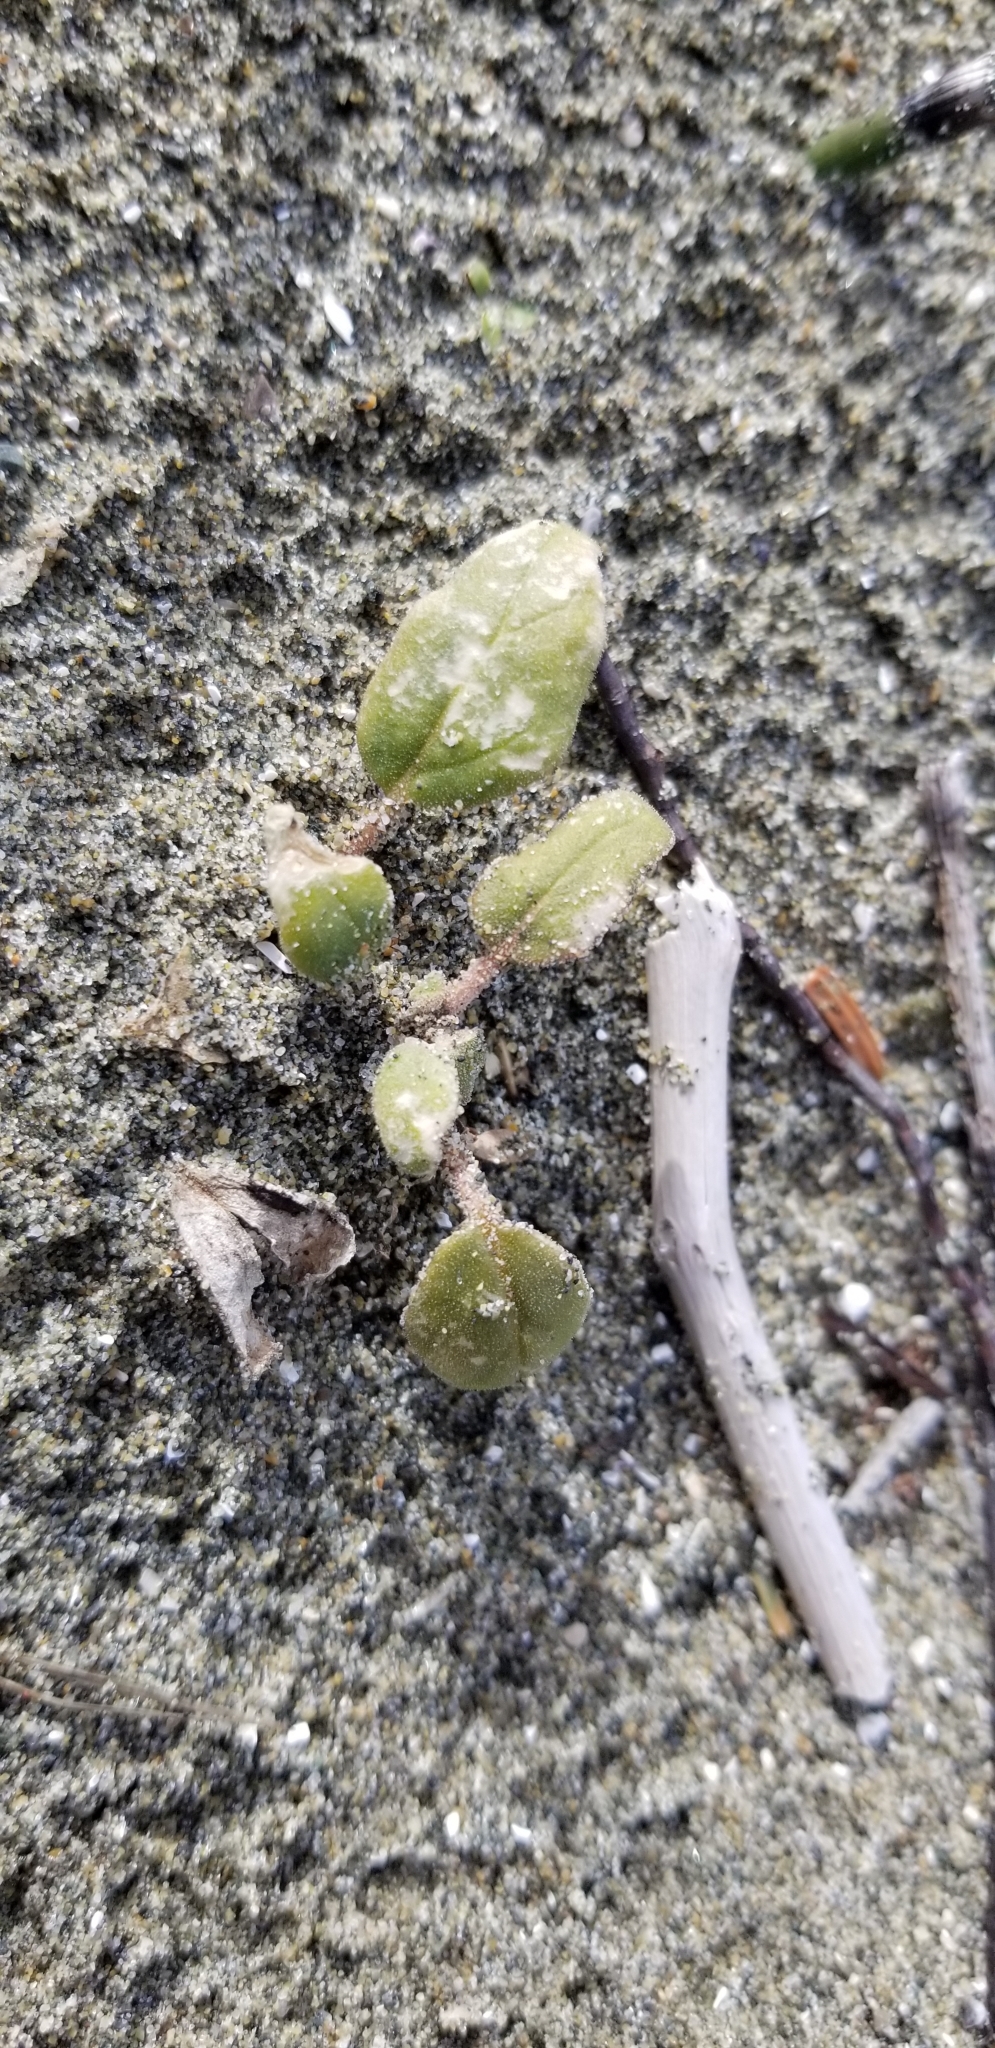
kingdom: Plantae
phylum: Tracheophyta
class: Magnoliopsida
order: Caryophyllales
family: Nyctaginaceae
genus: Abronia
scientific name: Abronia umbellata
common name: Sand-verbena
